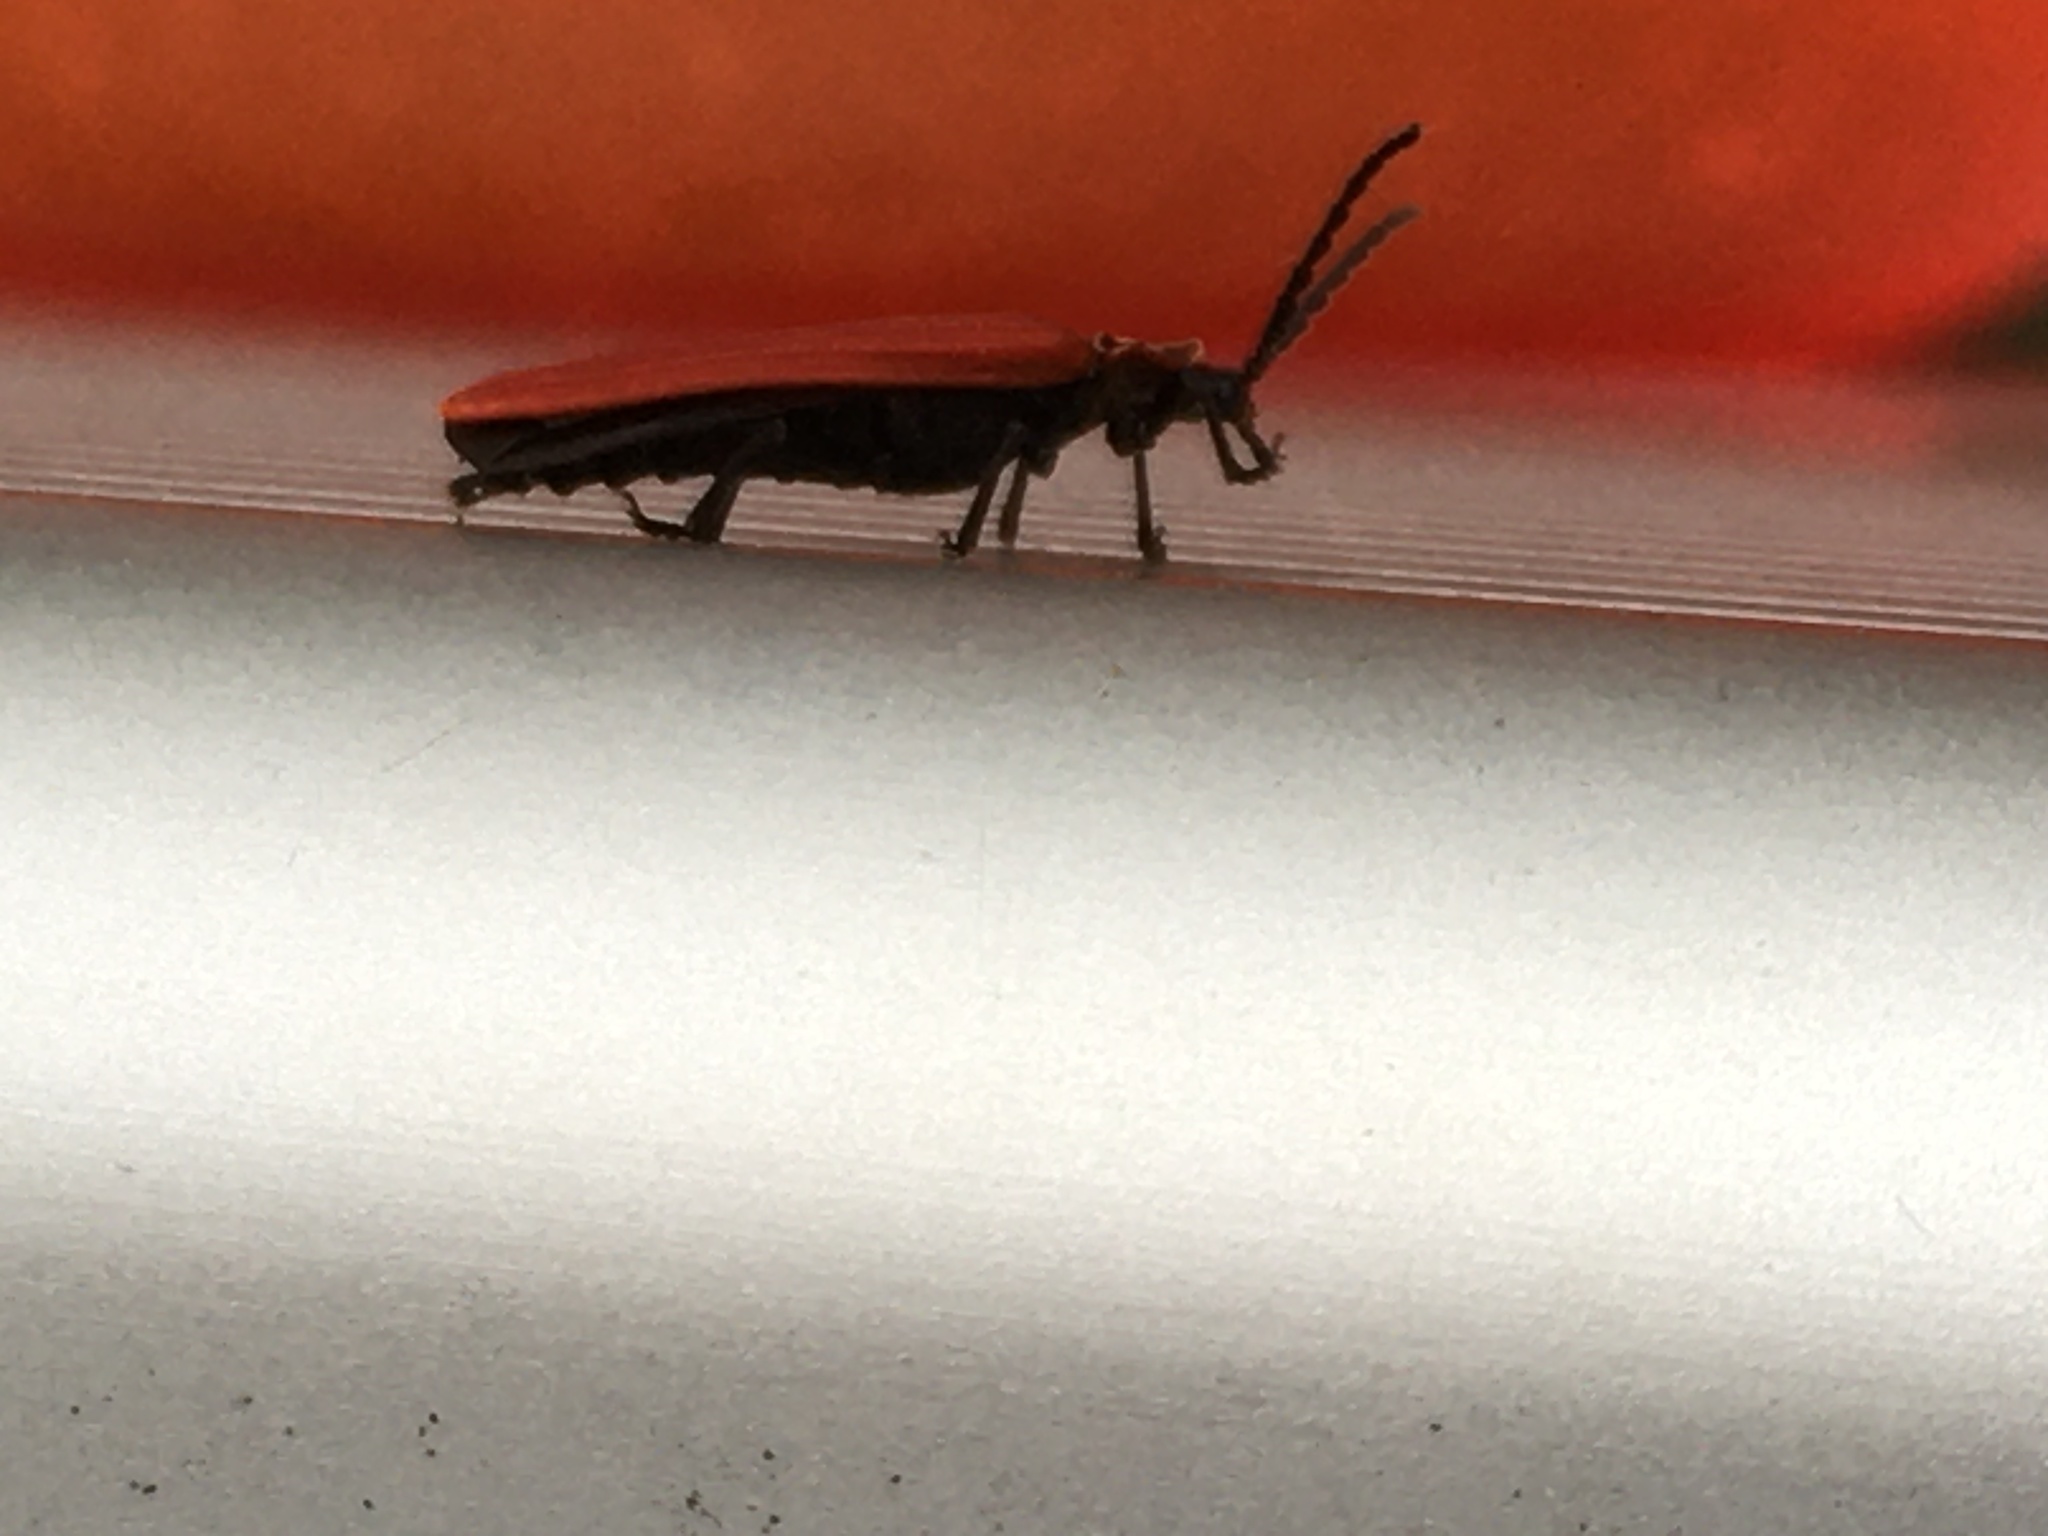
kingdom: Animalia
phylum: Arthropoda
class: Insecta
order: Coleoptera
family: Lycidae
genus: Dictyoptera
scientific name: Dictyoptera aurora
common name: Golden net-winged beetle
